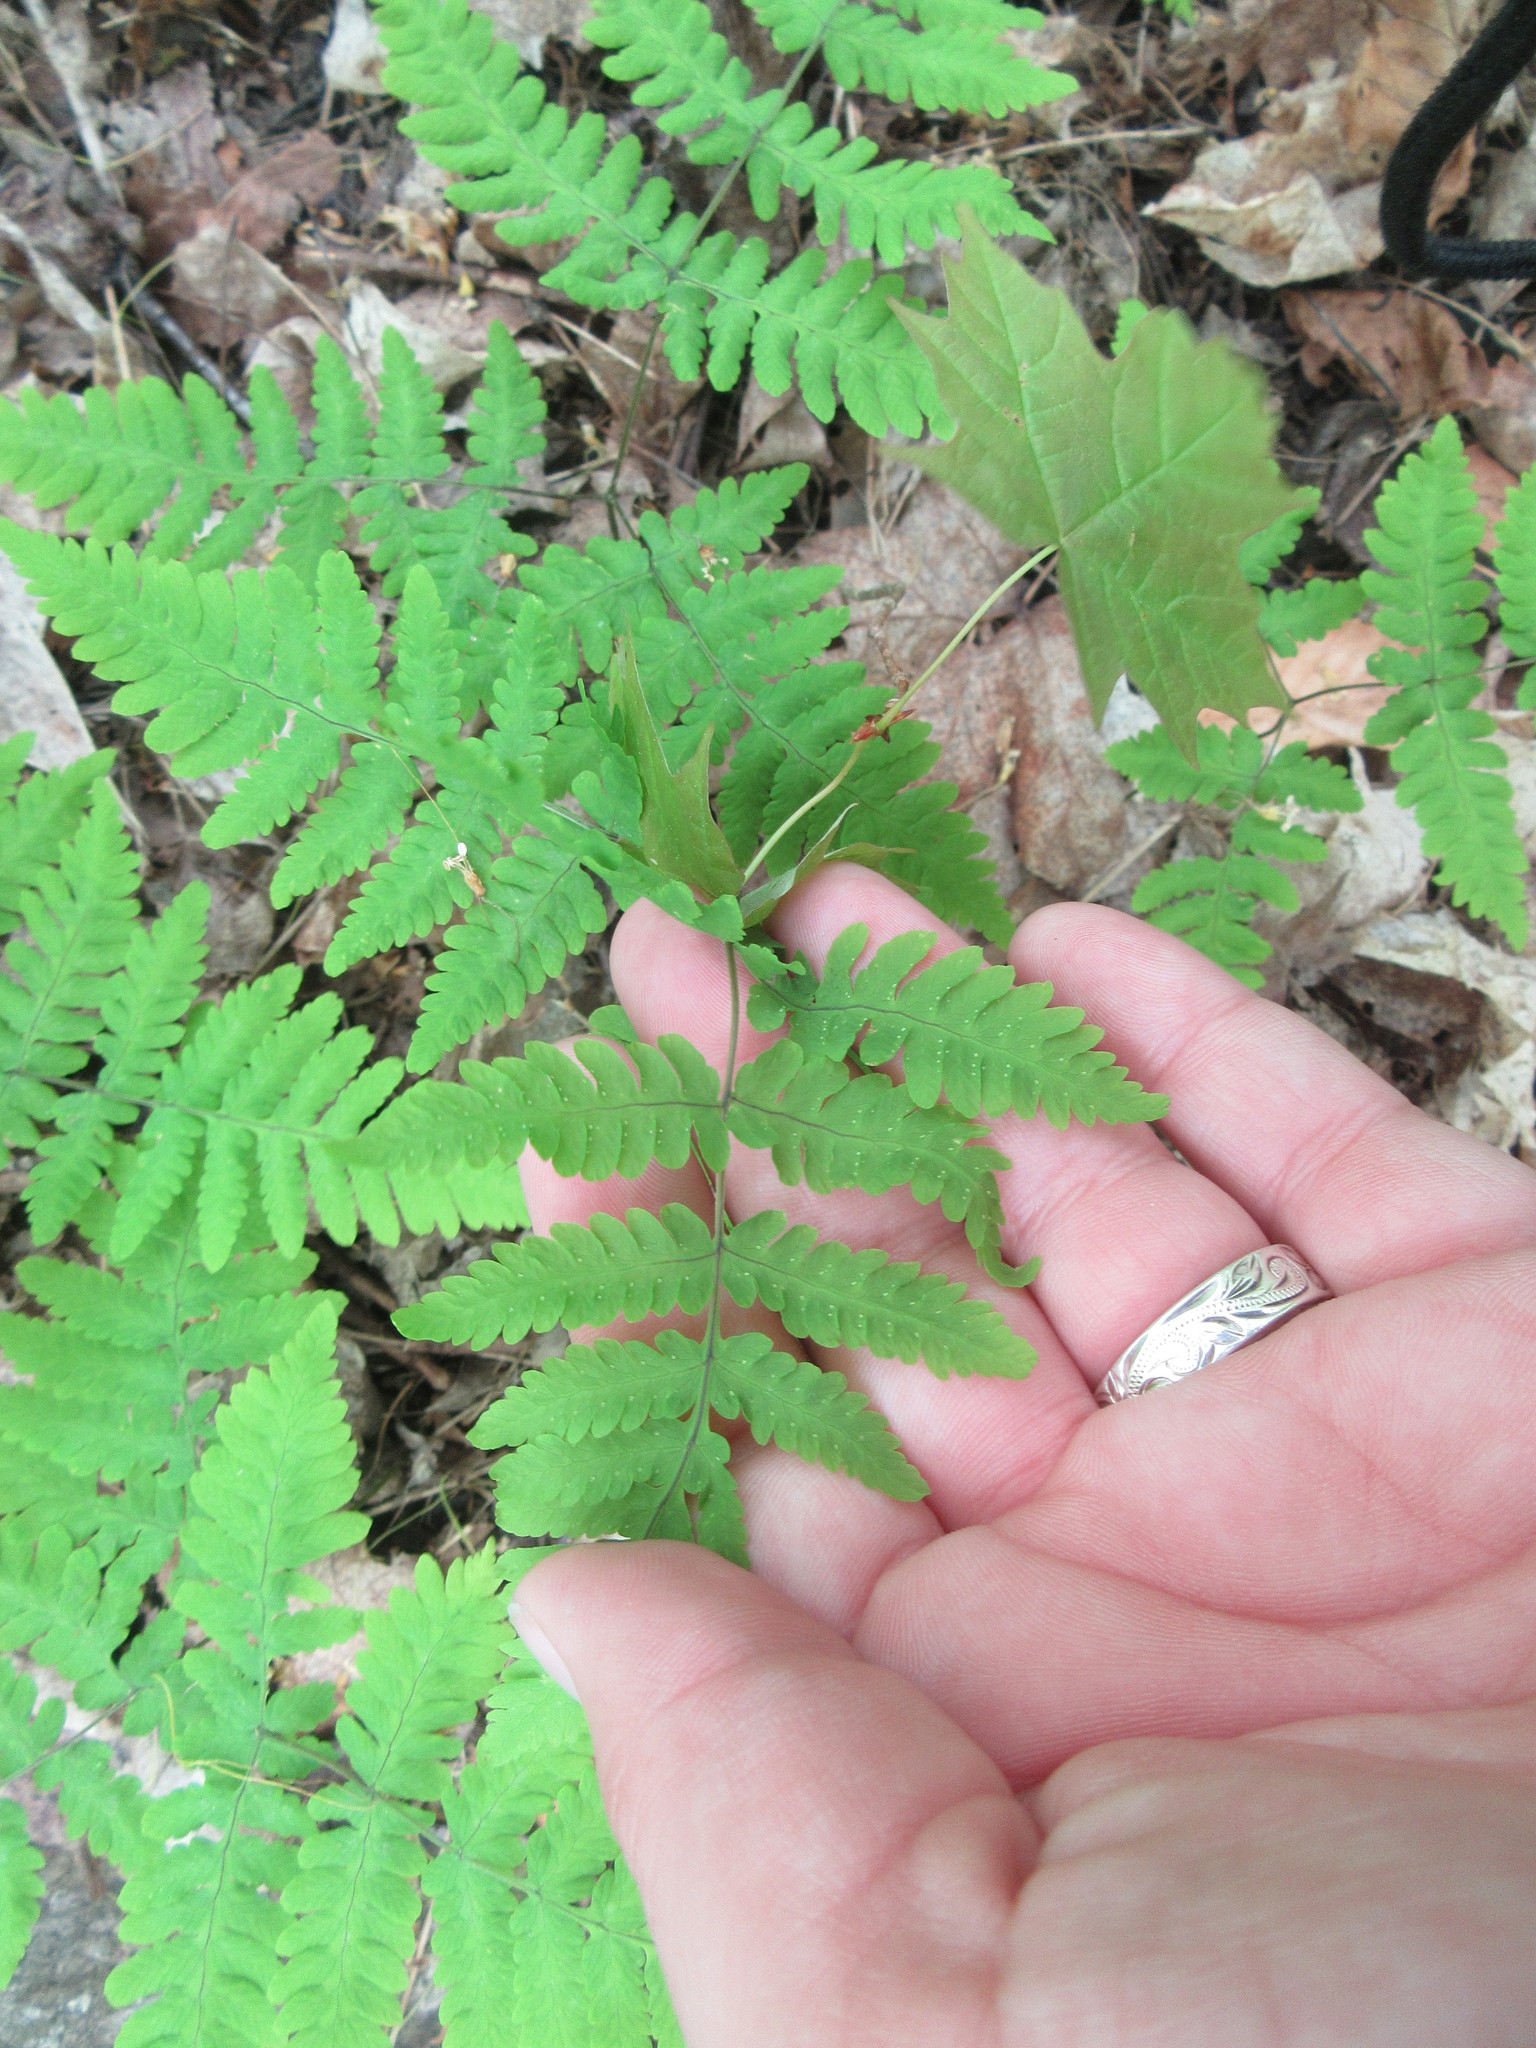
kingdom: Plantae
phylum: Tracheophyta
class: Polypodiopsida
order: Polypodiales
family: Cystopteridaceae
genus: Gymnocarpium
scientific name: Gymnocarpium dryopteris
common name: Oak fern
